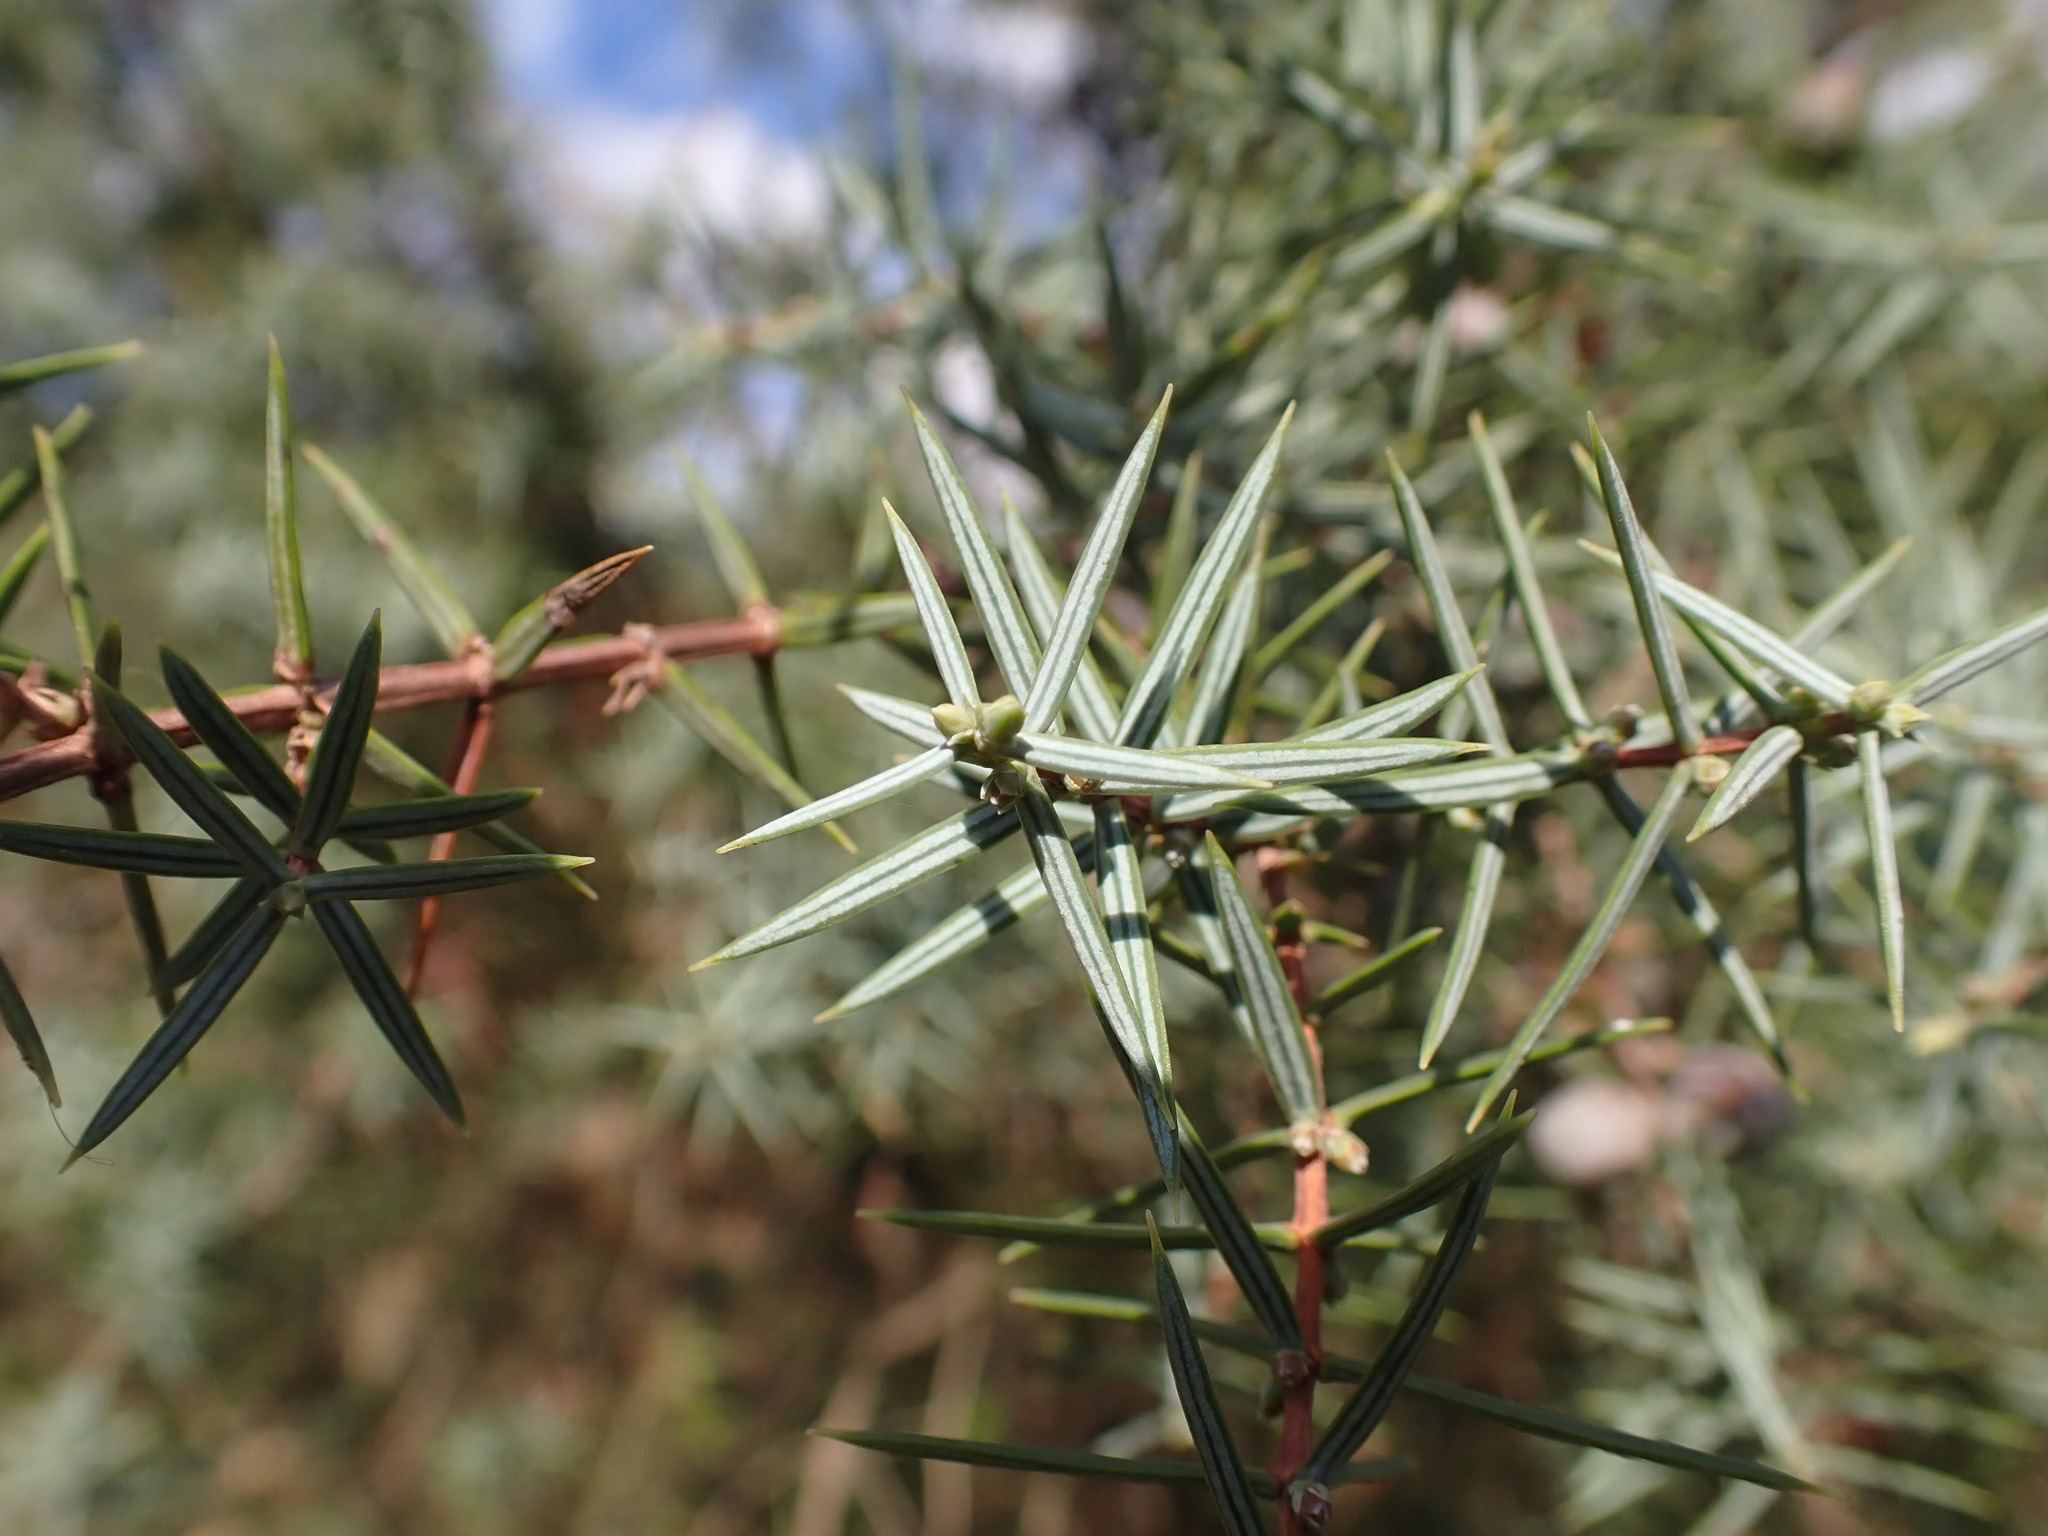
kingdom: Plantae
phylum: Tracheophyta
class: Pinopsida
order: Pinales
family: Cupressaceae
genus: Juniperus
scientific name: Juniperus oxycedrus
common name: Prickly juniper
